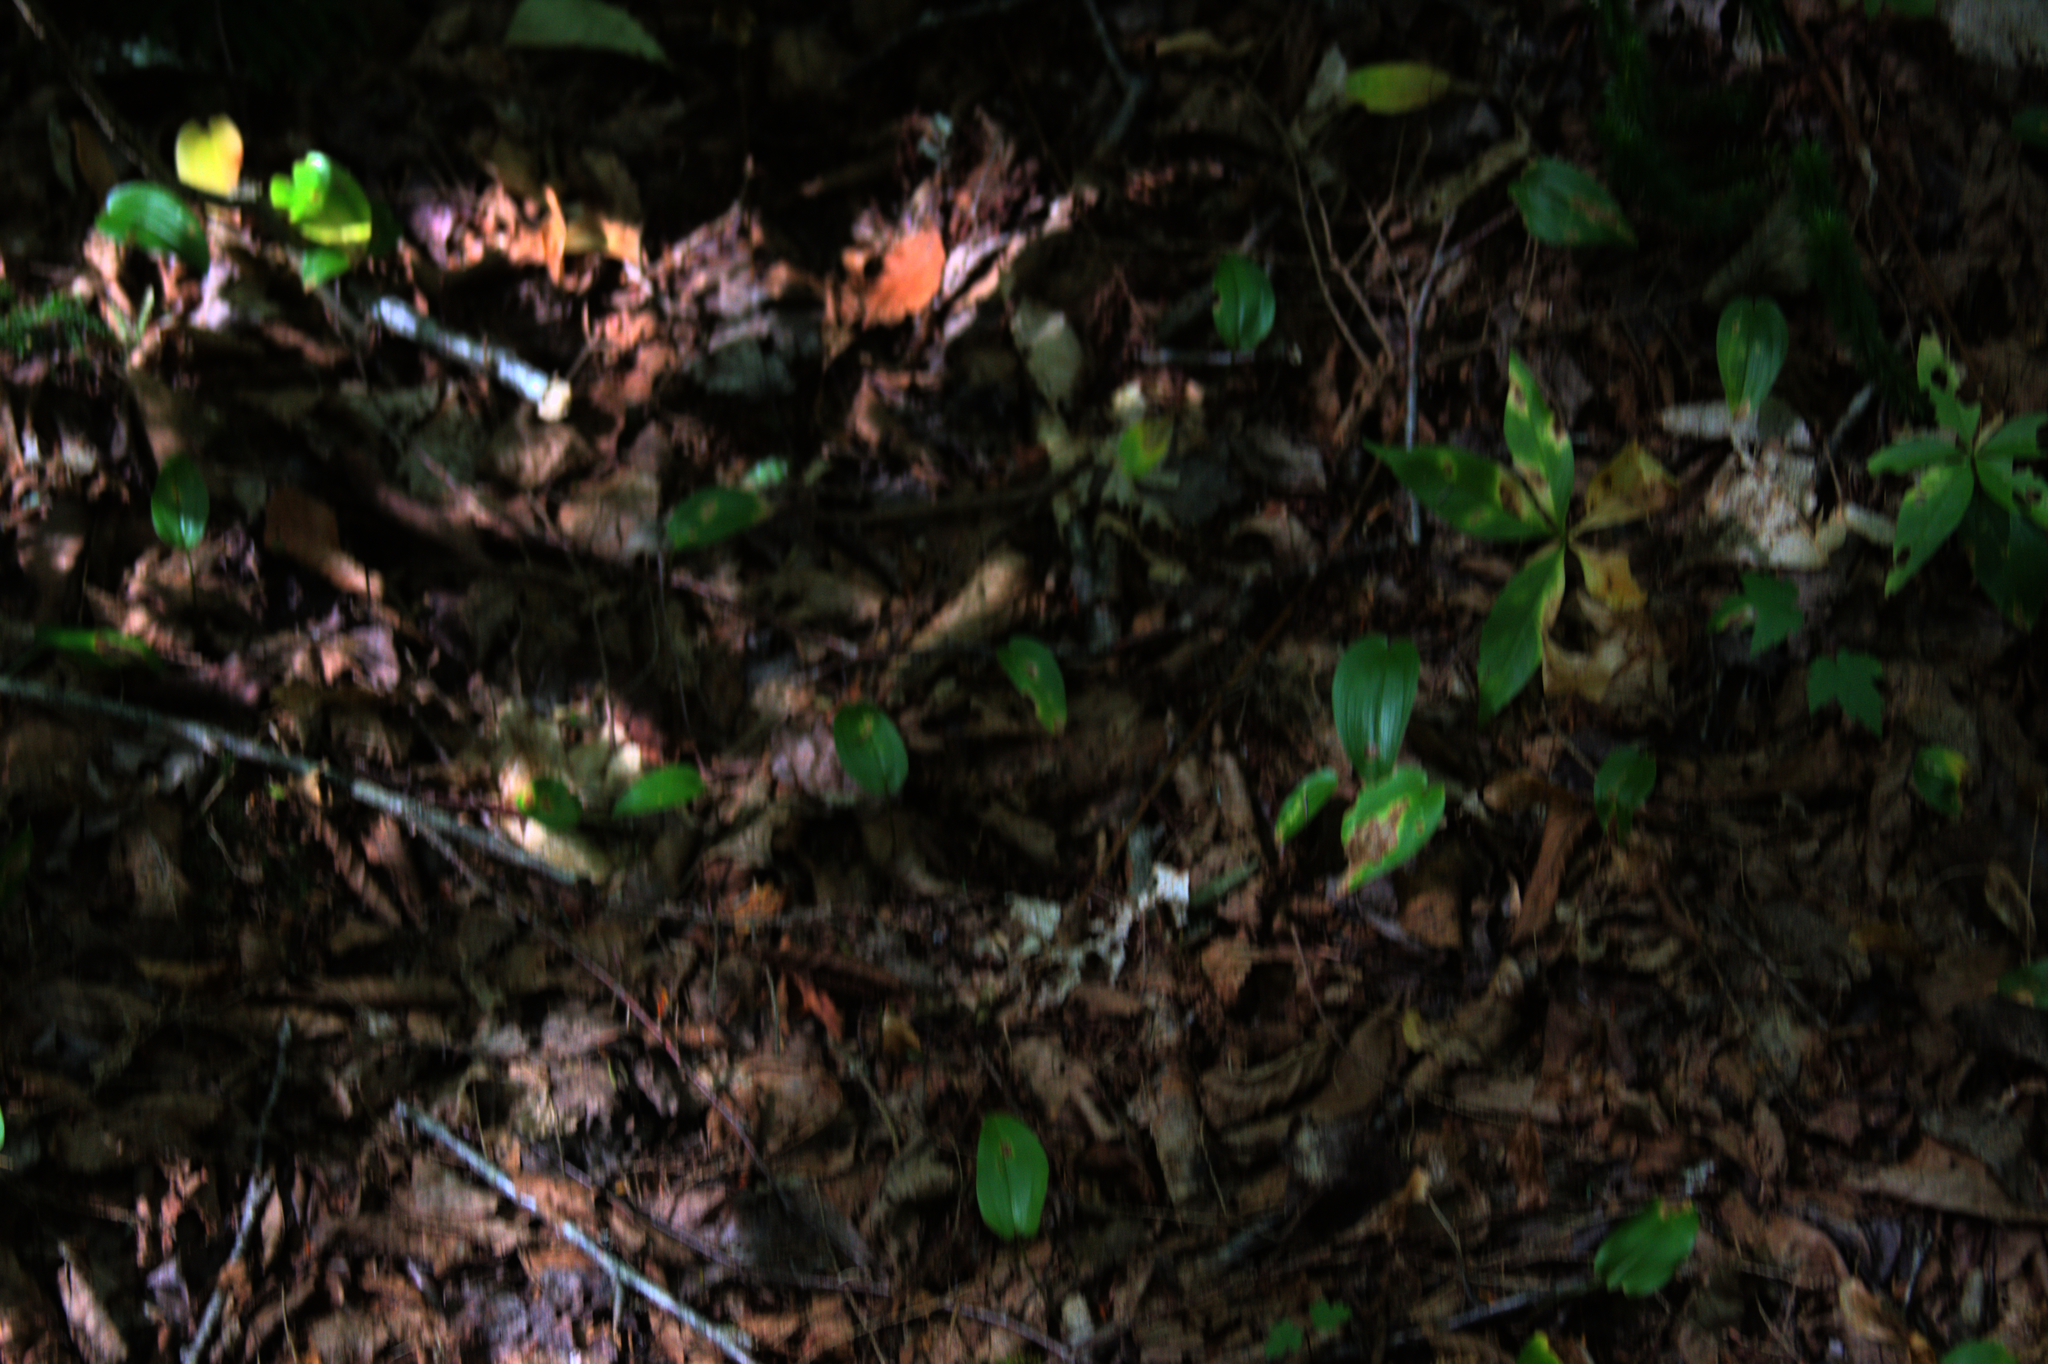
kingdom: Plantae
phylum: Tracheophyta
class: Liliopsida
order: Asparagales
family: Asparagaceae
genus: Maianthemum
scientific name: Maianthemum canadense
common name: False lily-of-the-valley
